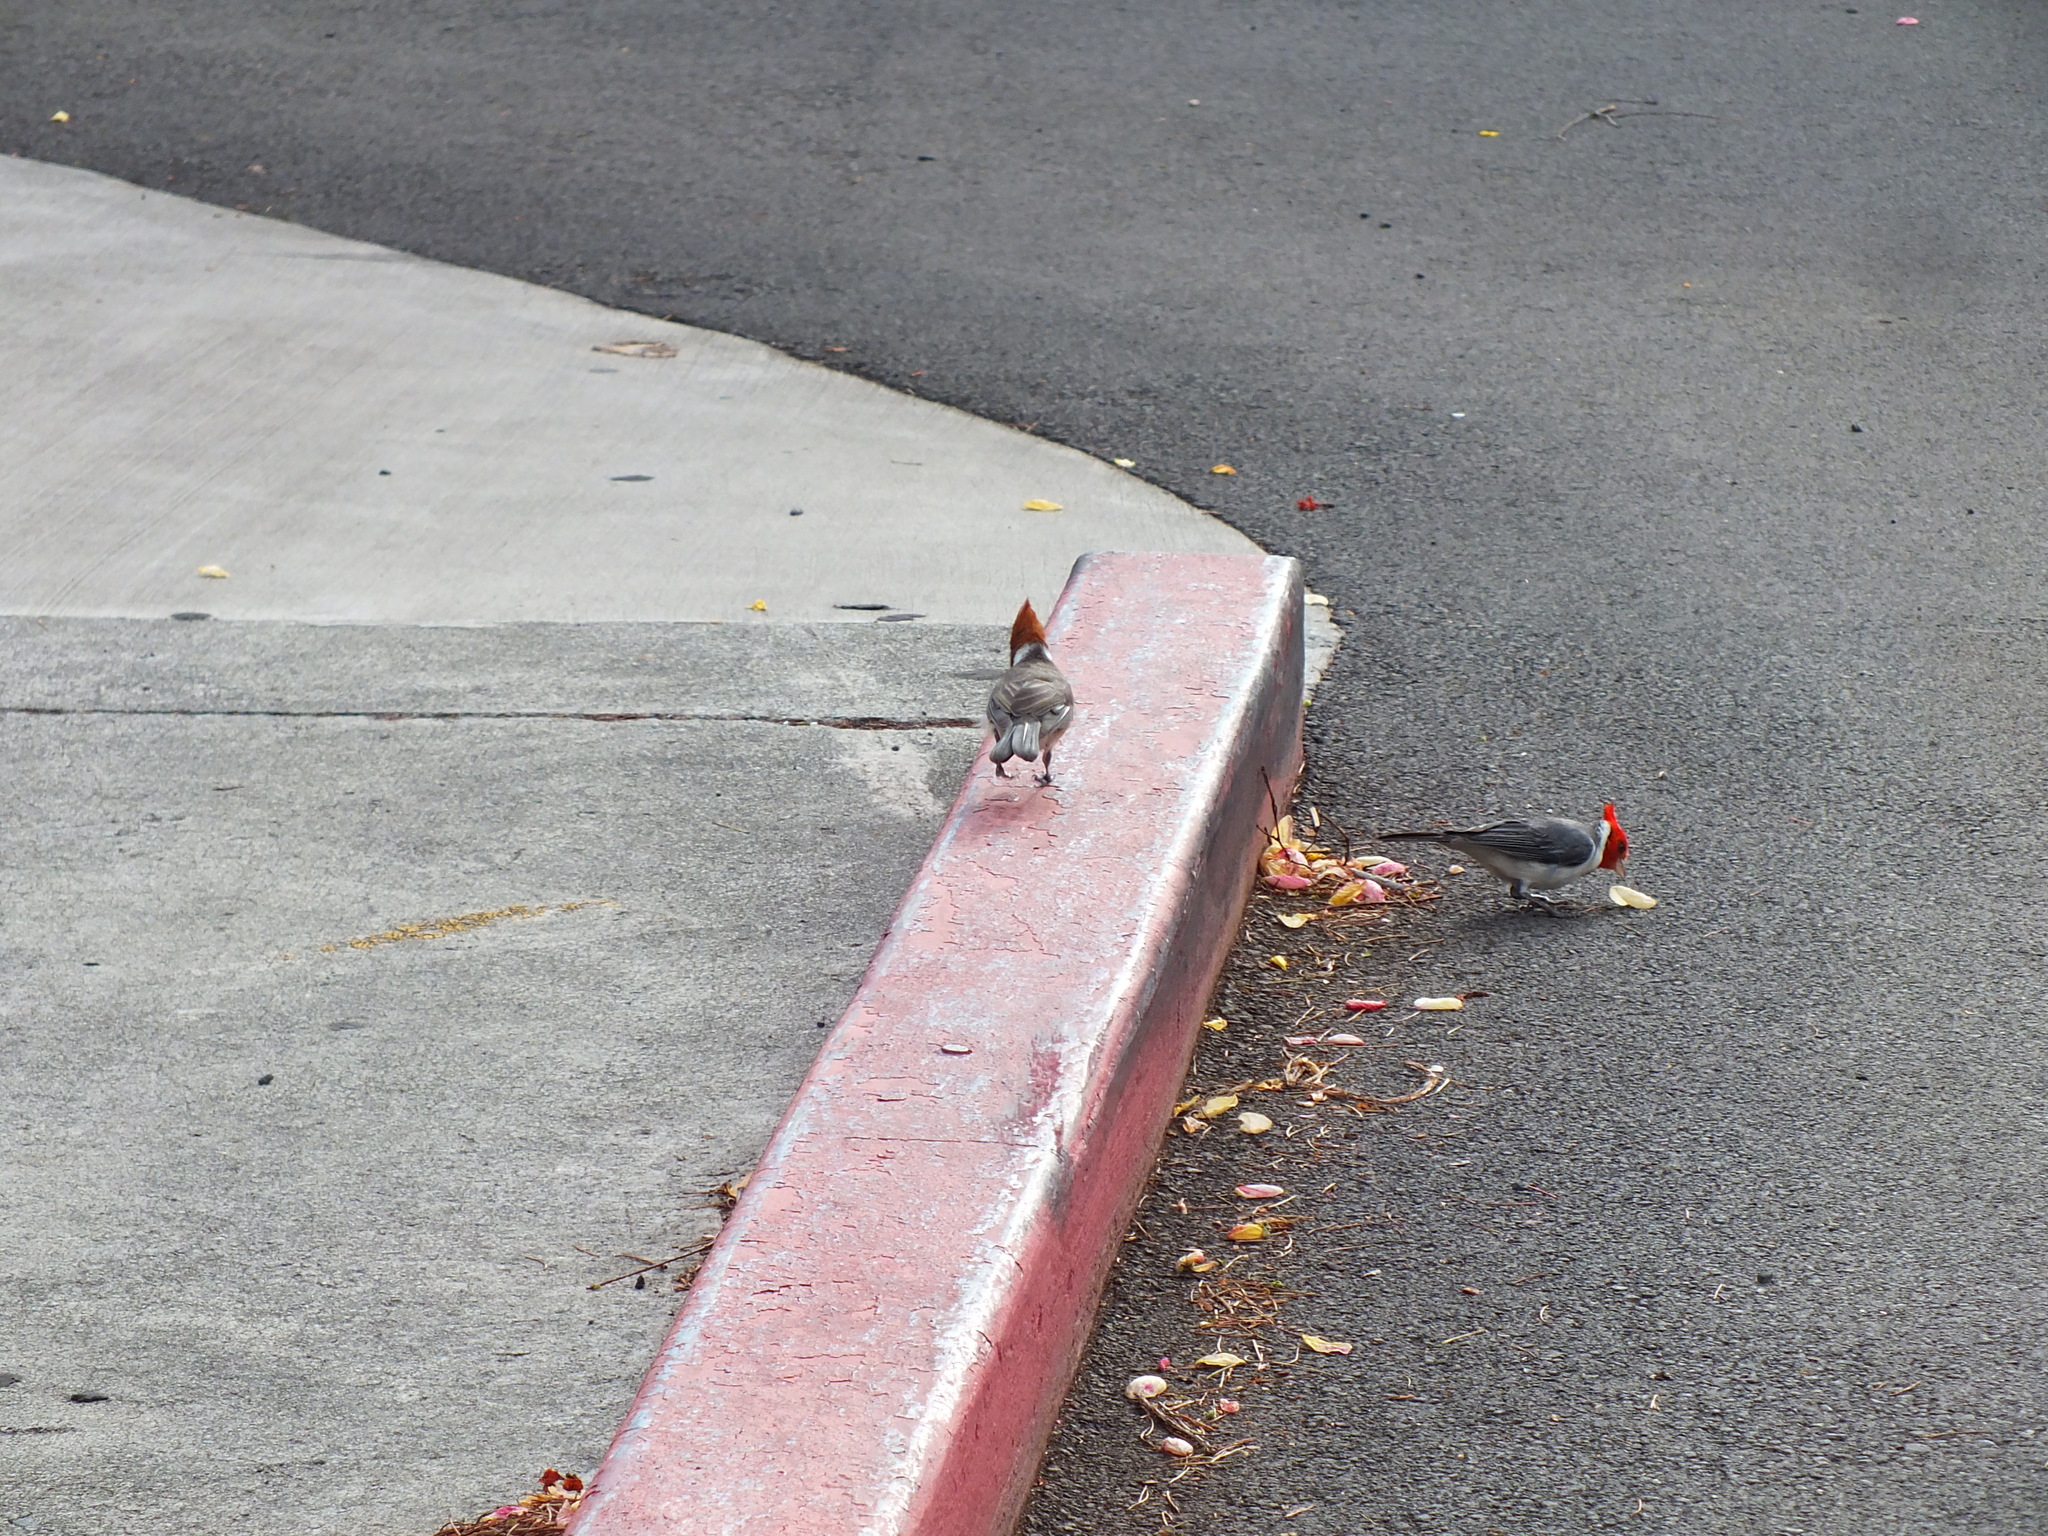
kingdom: Animalia
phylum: Chordata
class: Aves
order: Passeriformes
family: Thraupidae
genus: Paroaria
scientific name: Paroaria coronata
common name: Red-crested cardinal
